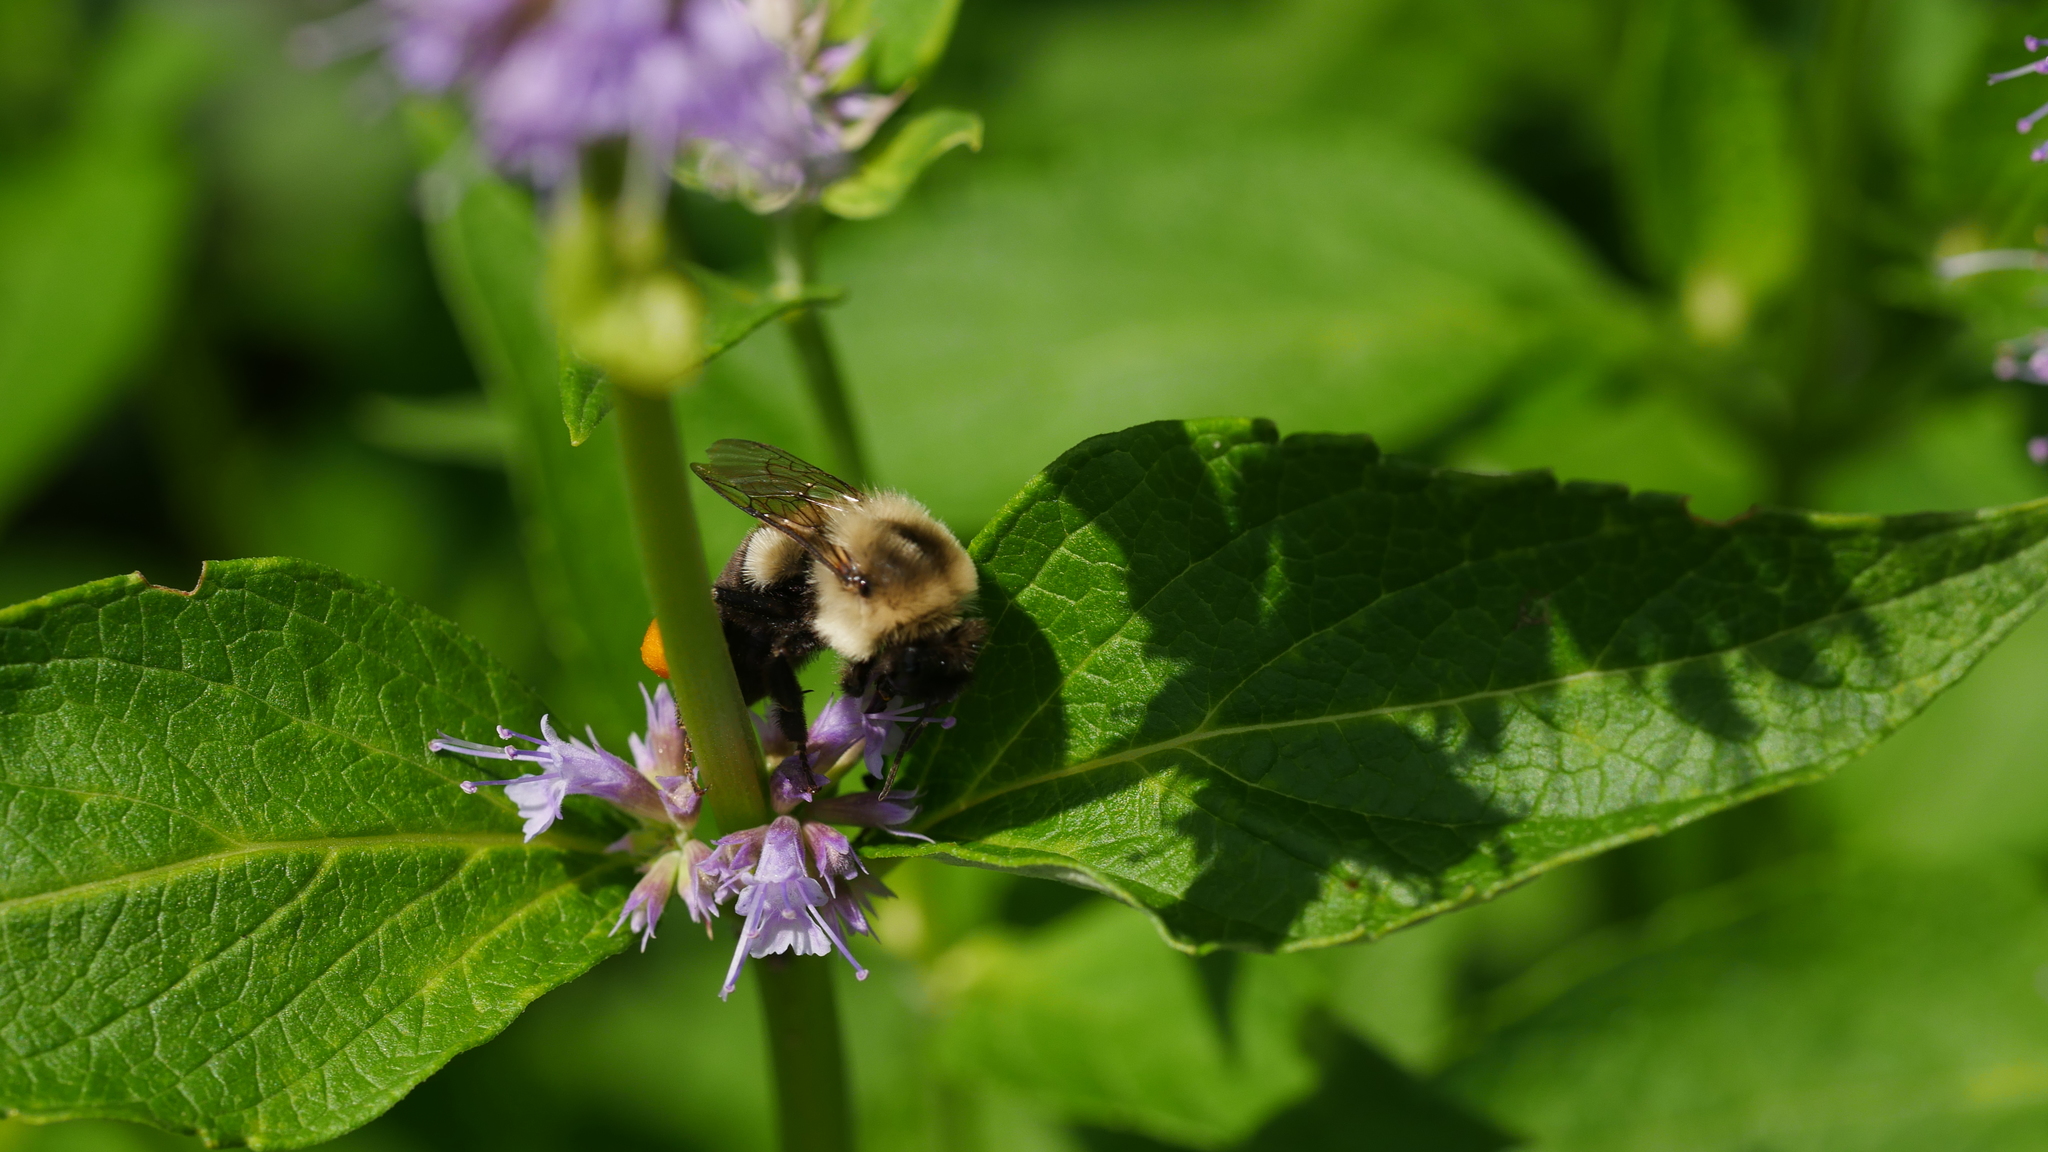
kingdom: Animalia
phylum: Arthropoda
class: Insecta
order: Hymenoptera
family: Apidae
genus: Bombus
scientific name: Bombus impatiens
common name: Common eastern bumble bee
